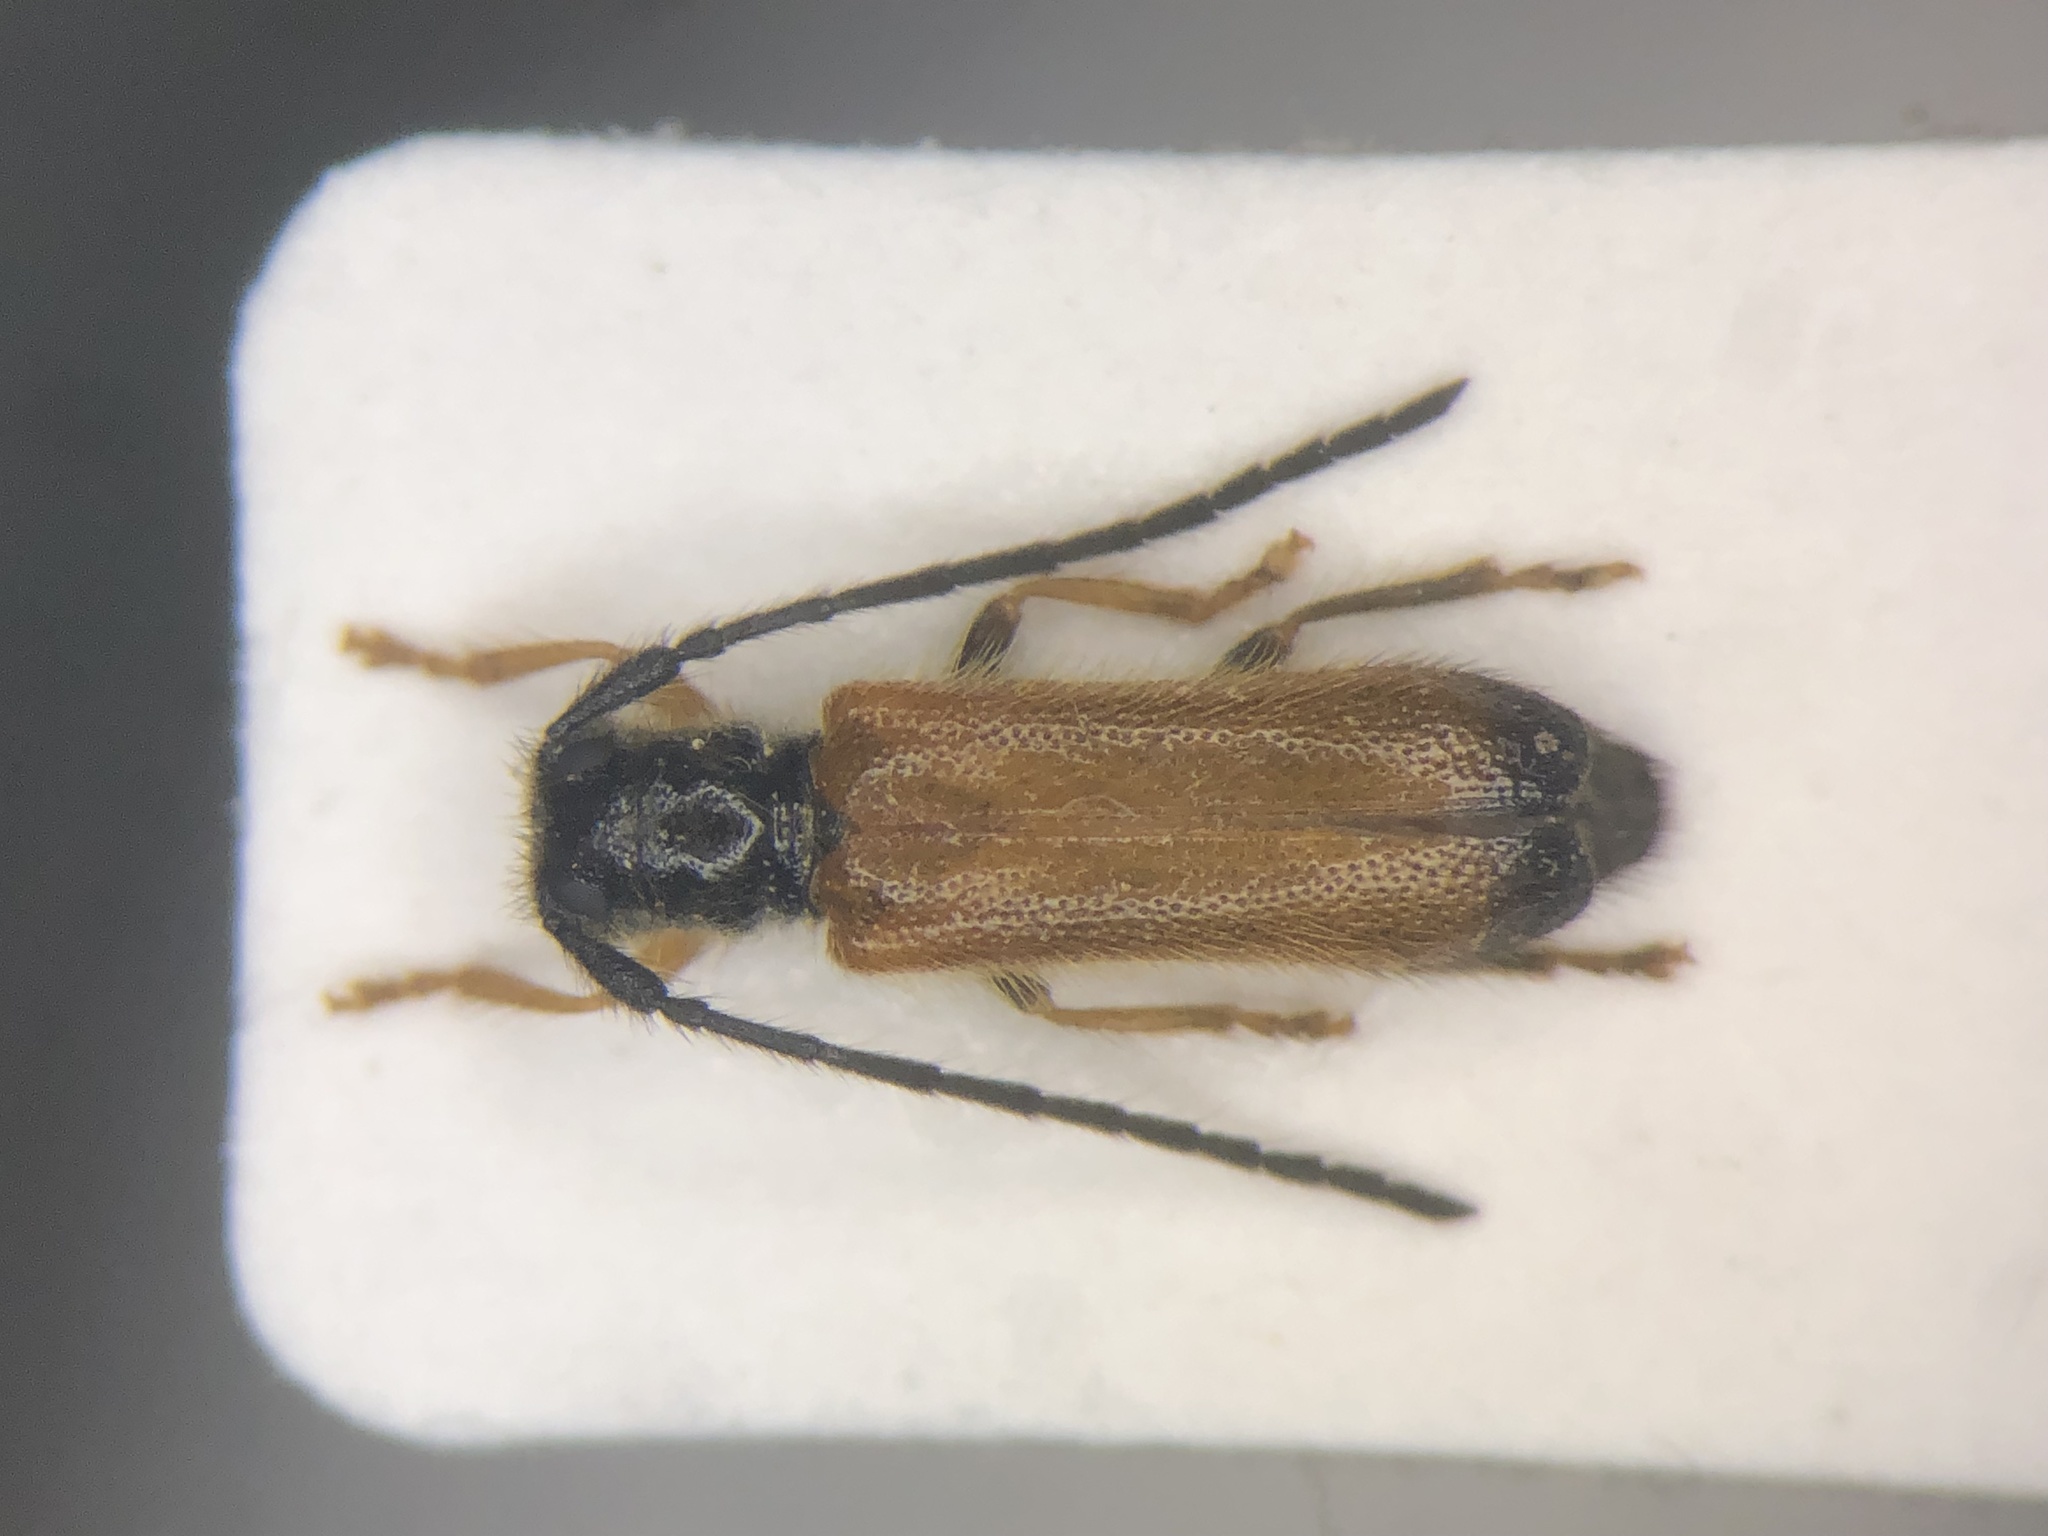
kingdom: Animalia
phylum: Arthropoda
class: Insecta
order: Coleoptera
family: Cerambycidae
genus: Tetrops
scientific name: Tetrops praeustus
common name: Plum beetle
